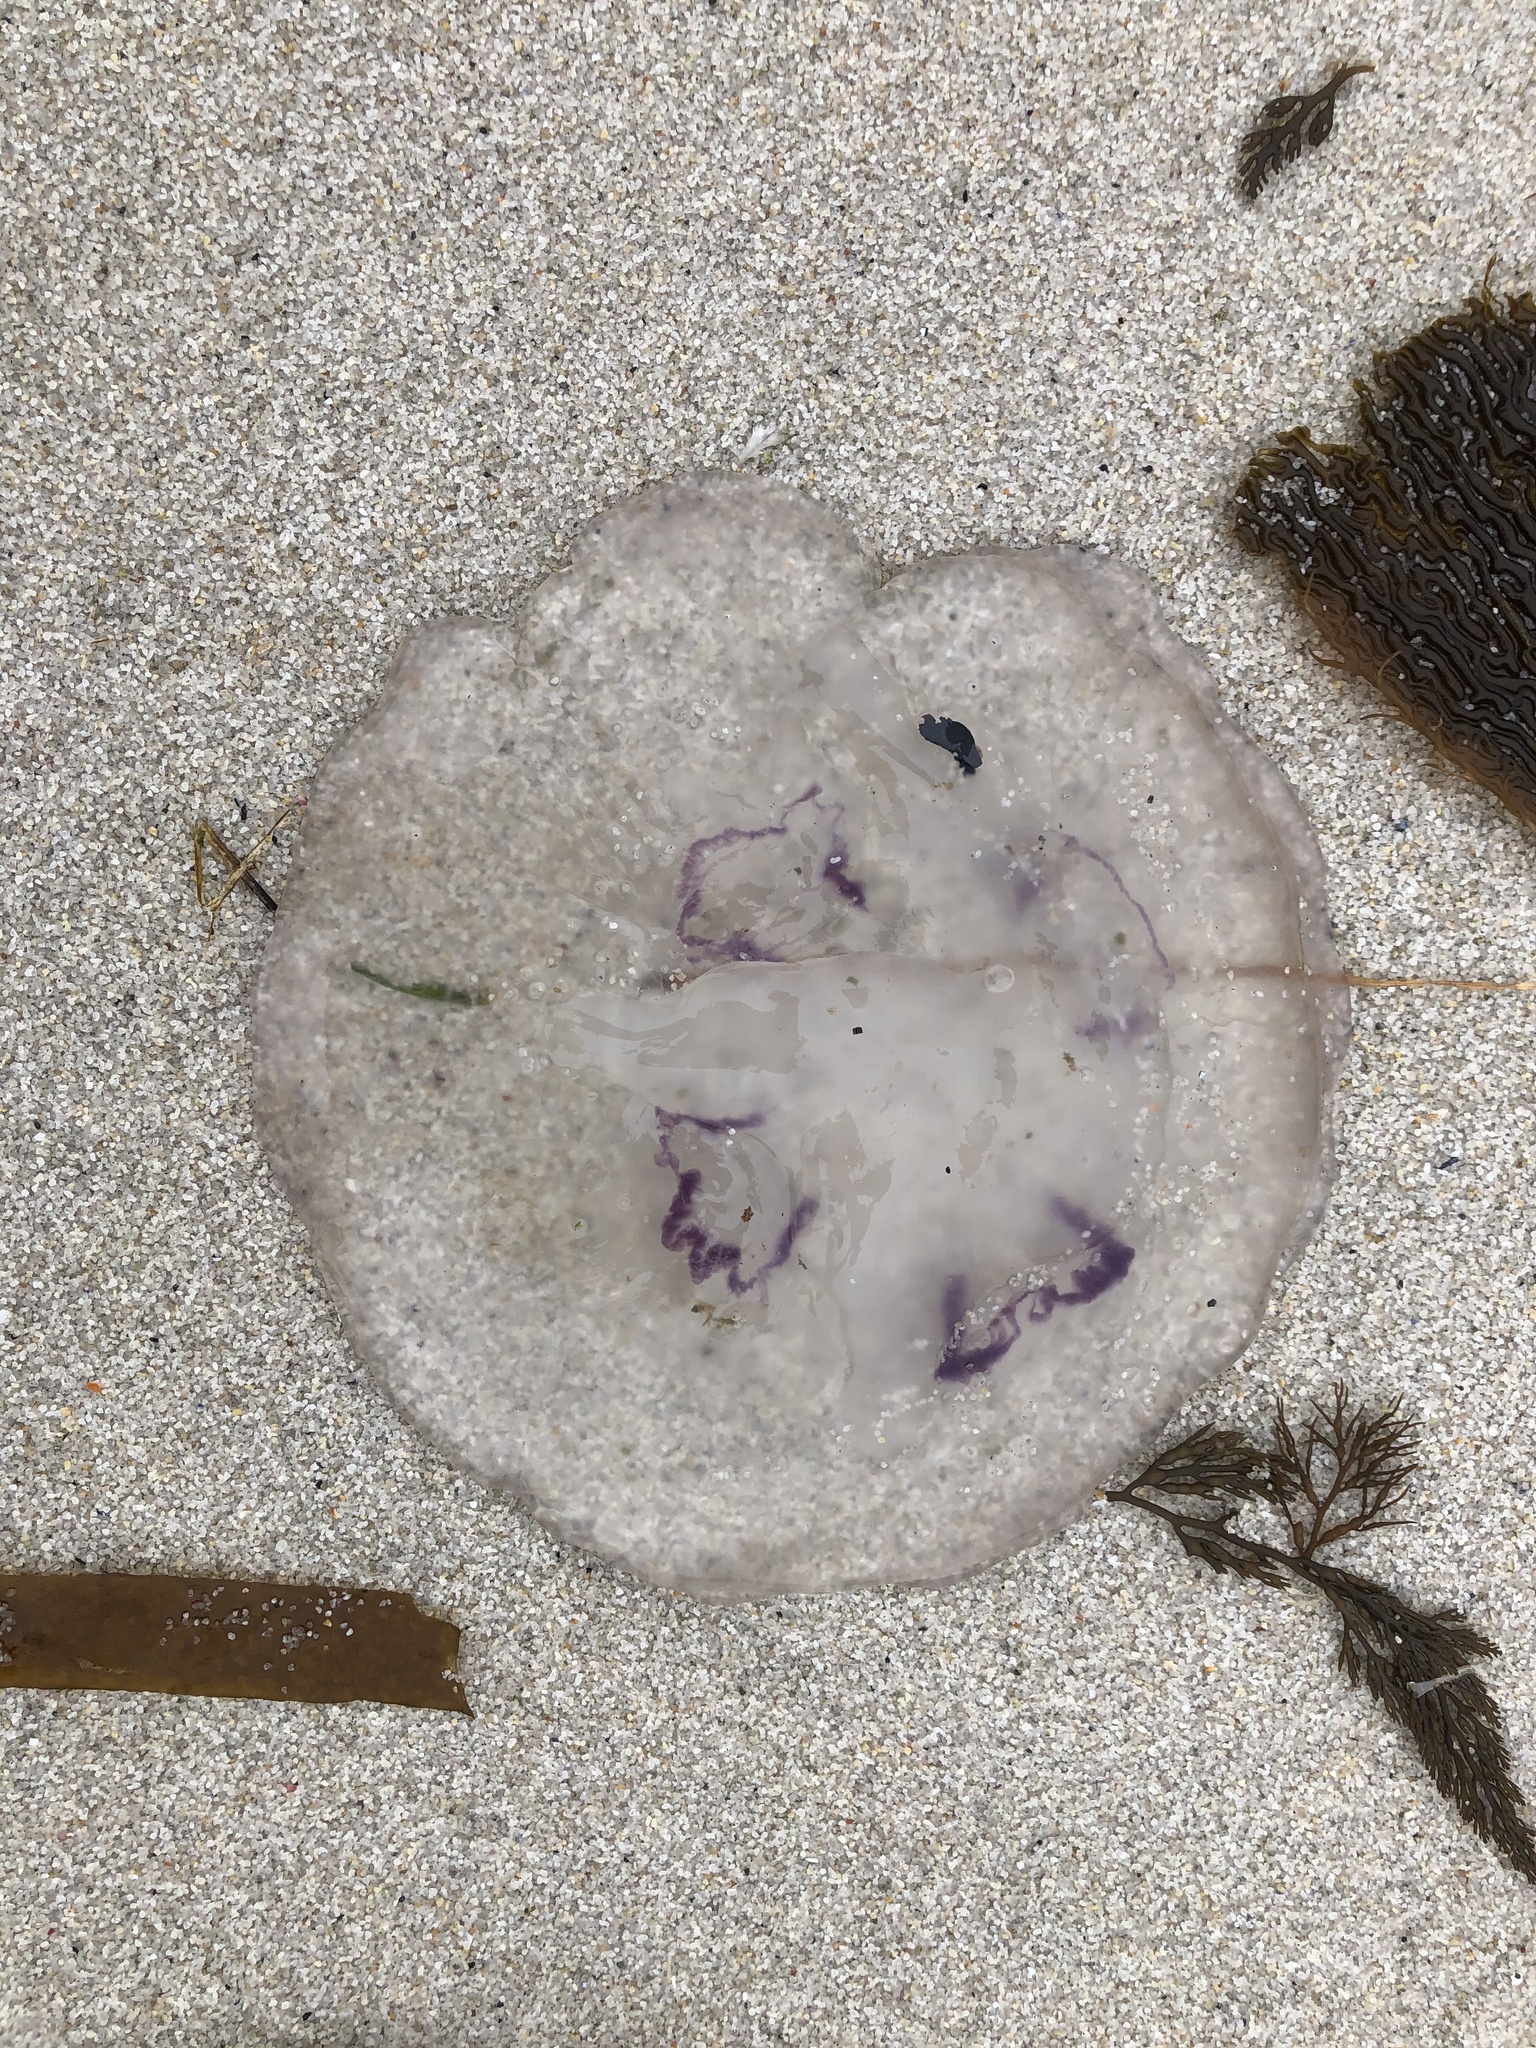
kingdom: Animalia
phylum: Cnidaria
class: Scyphozoa
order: Semaeostomeae
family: Ulmaridae
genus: Aurelia
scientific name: Aurelia labiata
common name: Pacific moon jelly
